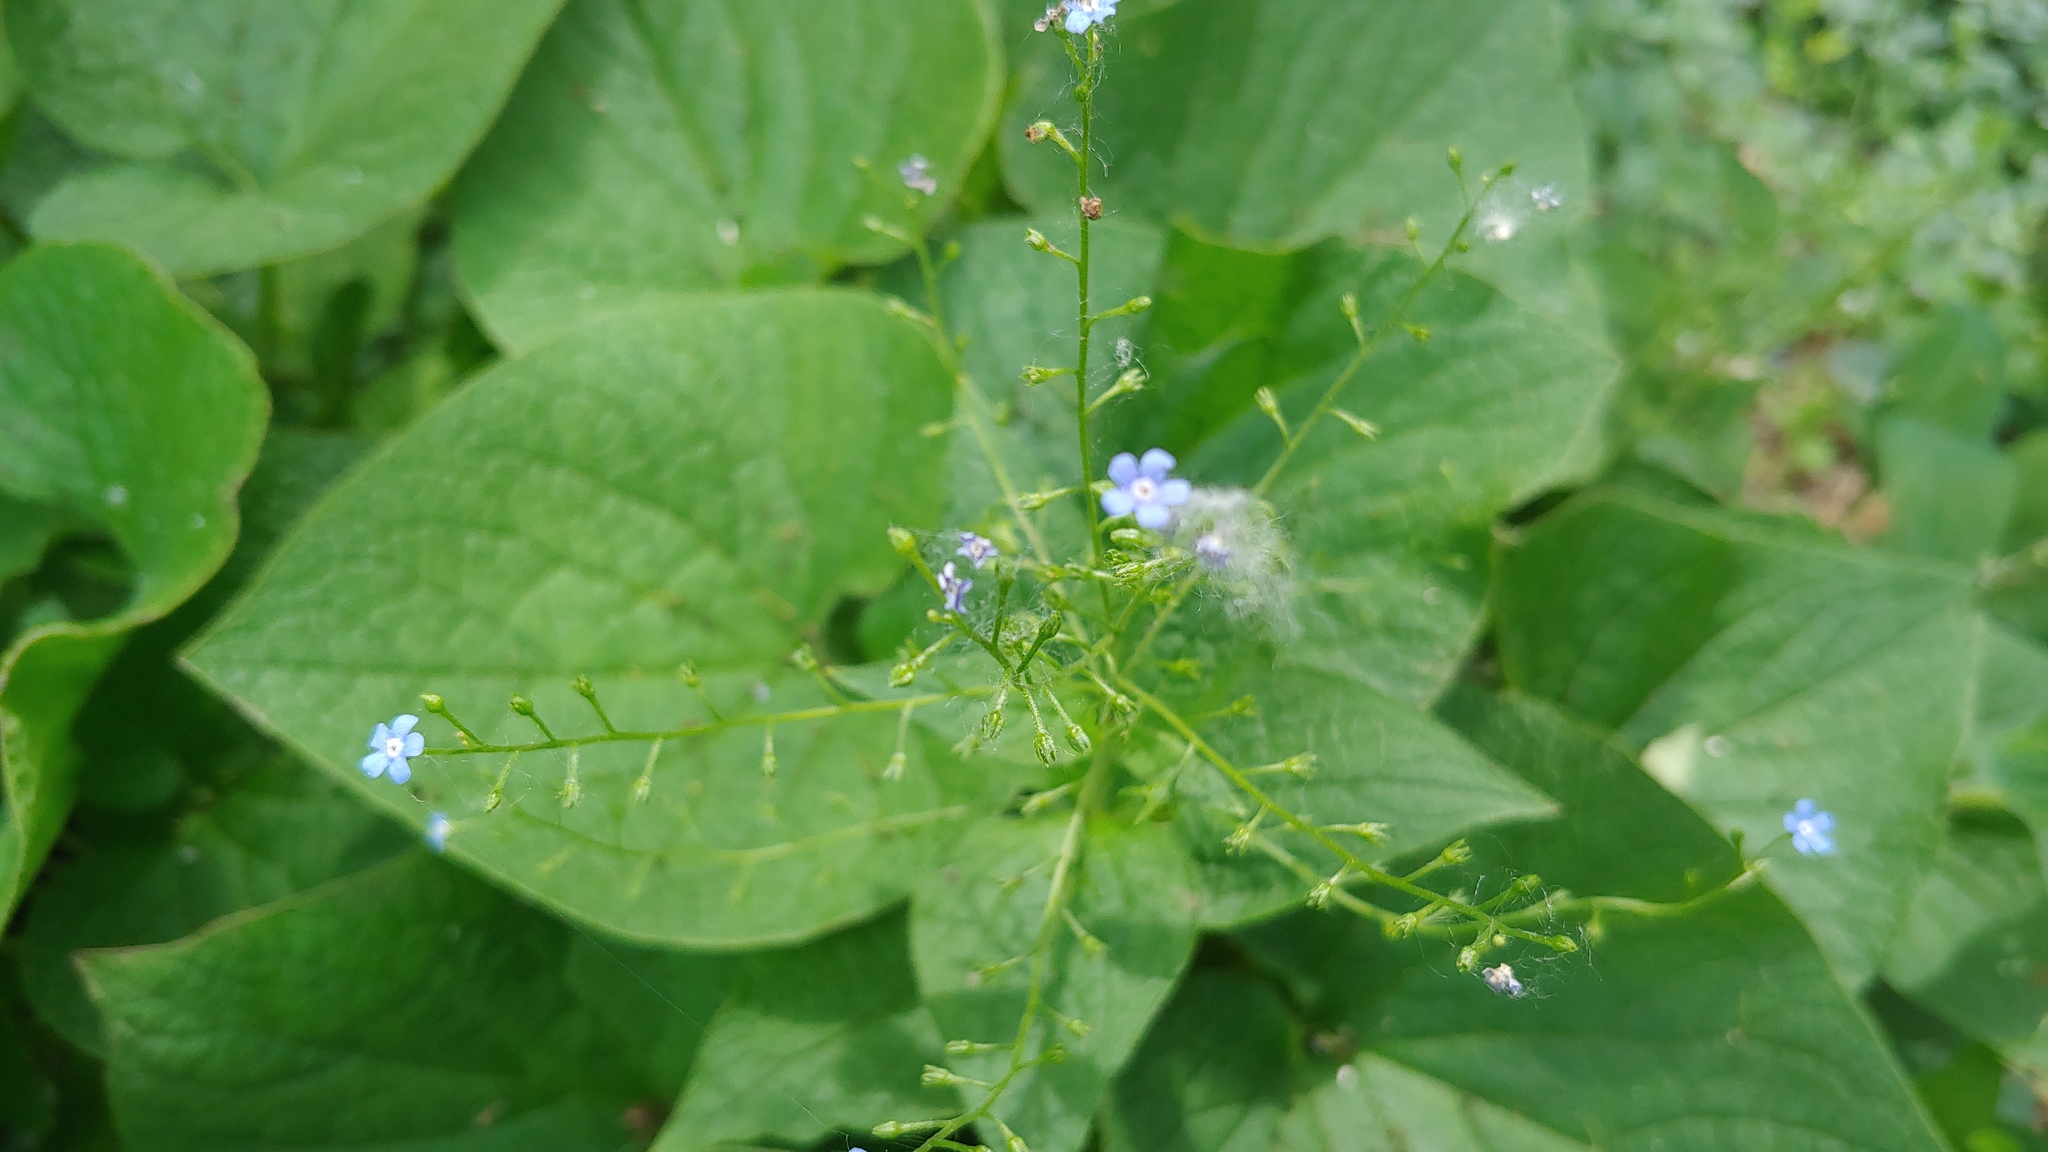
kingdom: Plantae
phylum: Tracheophyta
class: Magnoliopsida
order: Boraginales
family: Boraginaceae
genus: Brunnera
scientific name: Brunnera macrophylla
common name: Great forget-me-not
